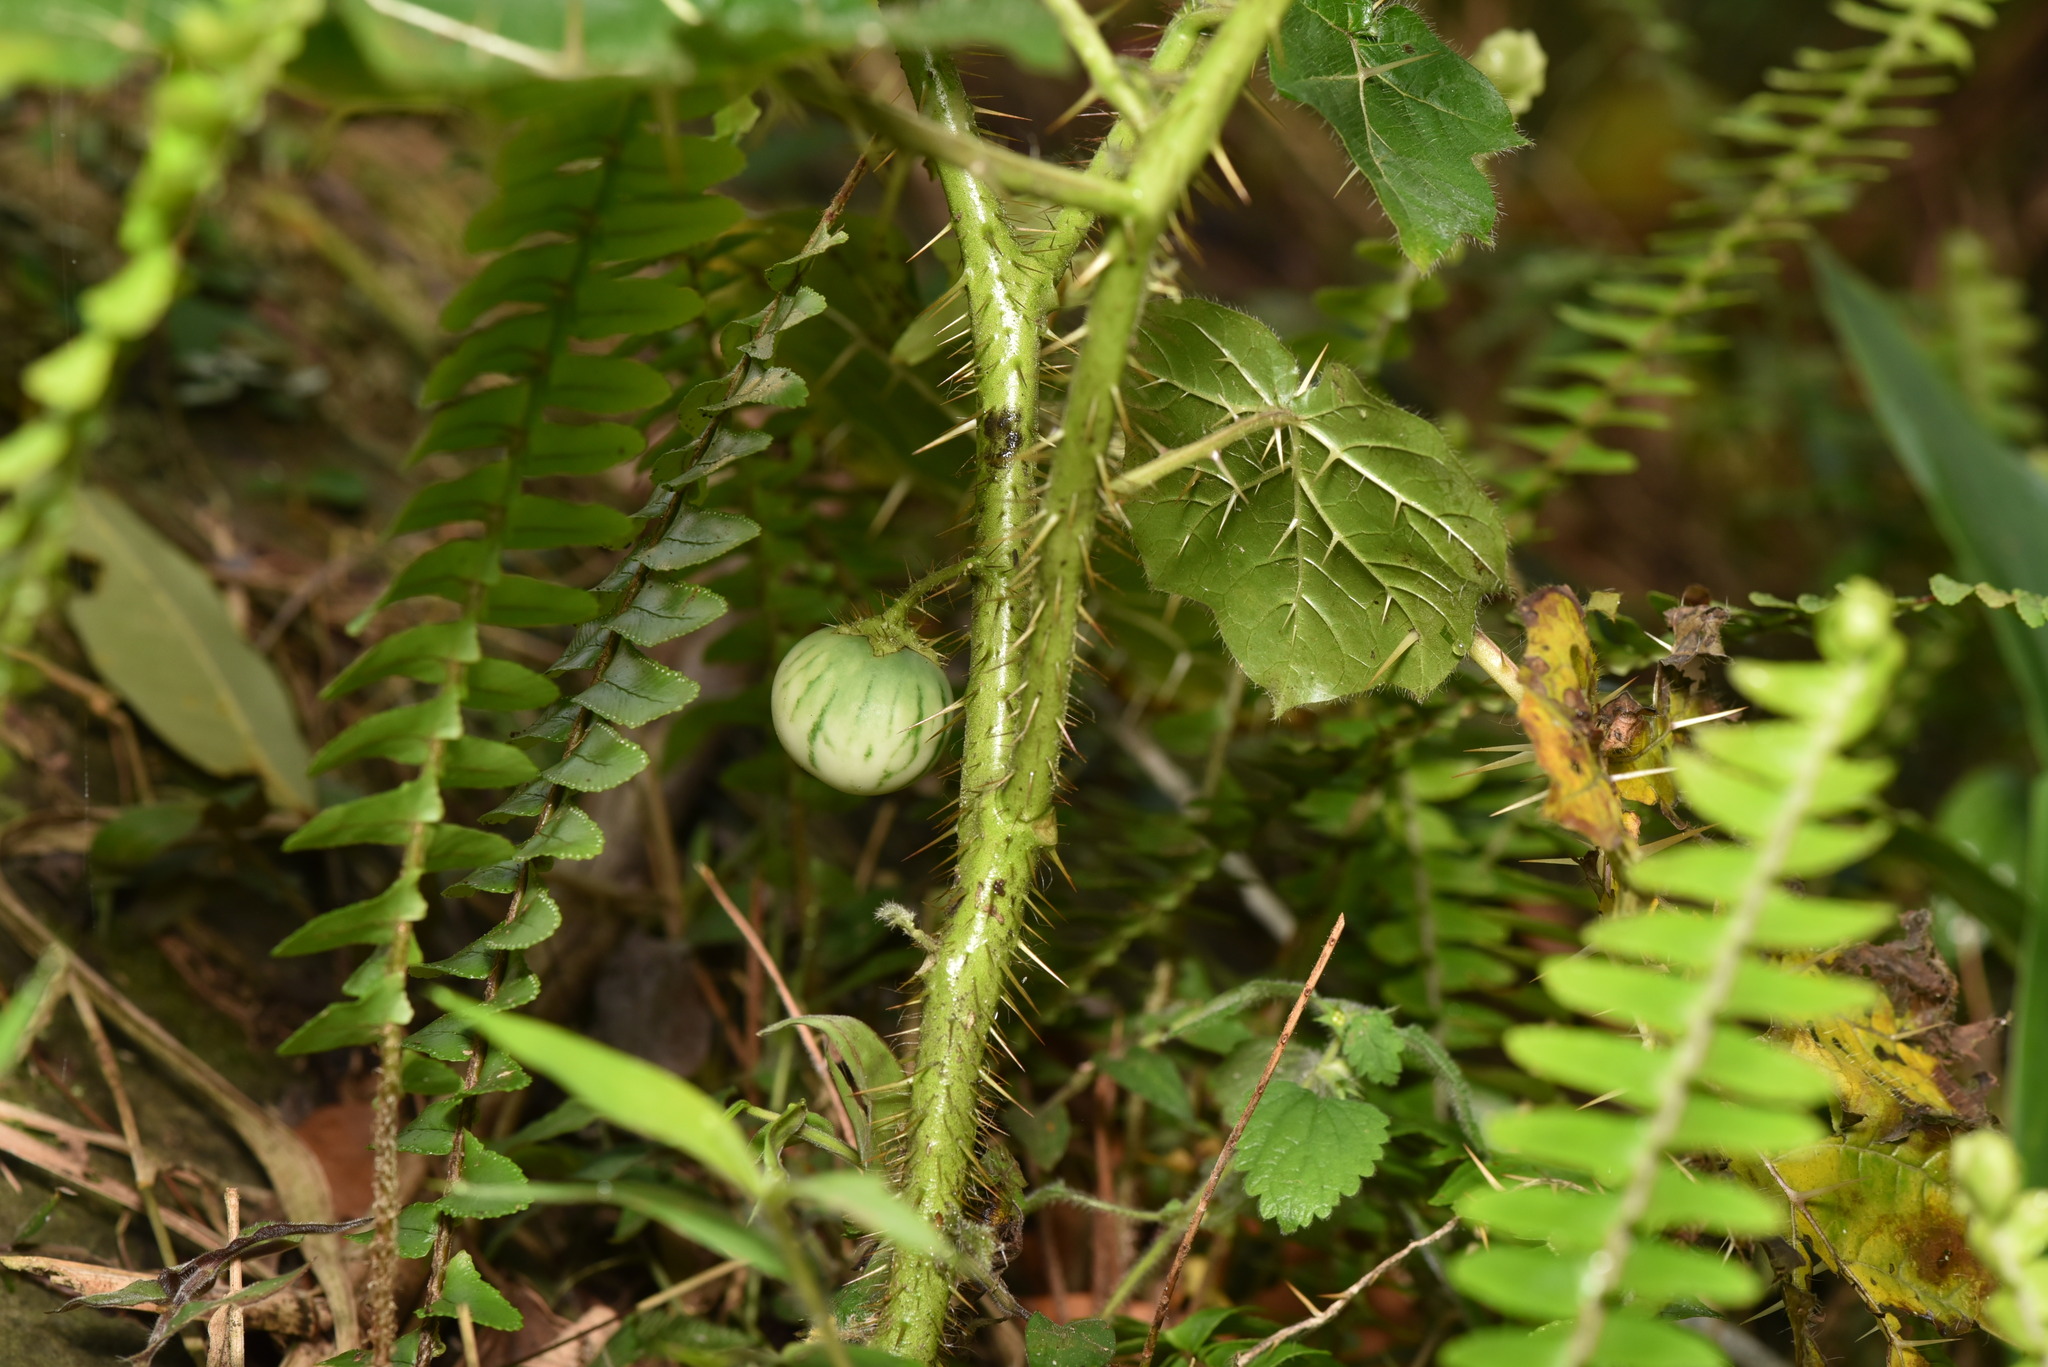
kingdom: Plantae
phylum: Tracheophyta
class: Magnoliopsida
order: Solanales
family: Solanaceae
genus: Solanum
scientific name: Solanum capsicoides
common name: Cockroach berry
